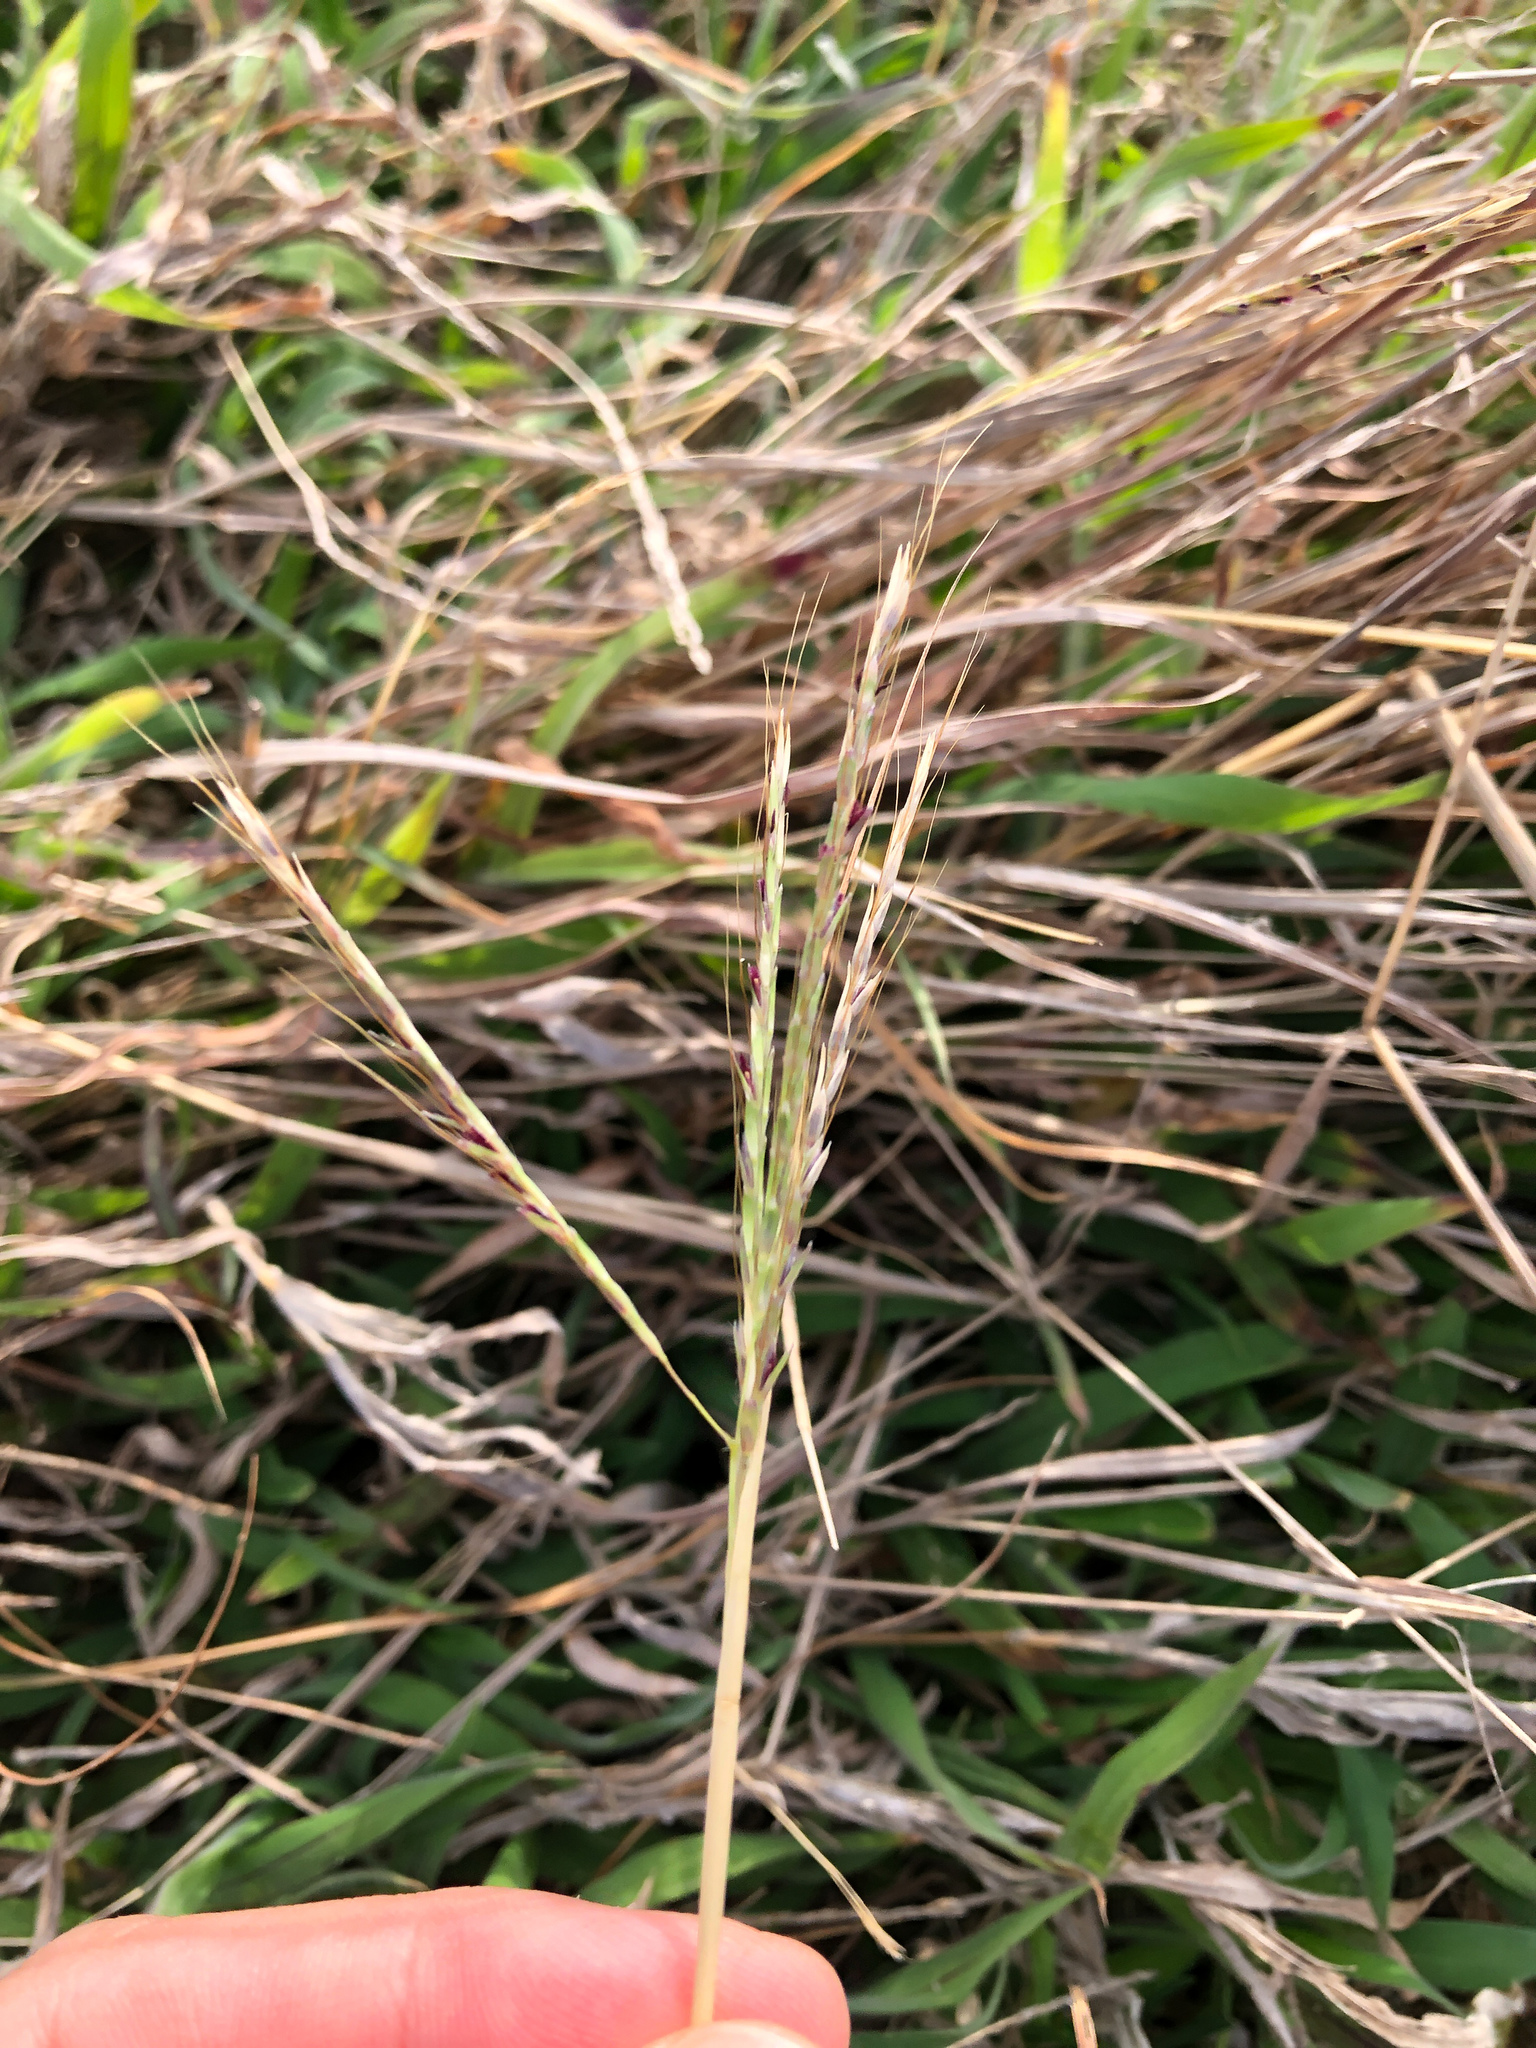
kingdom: Plantae
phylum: Tracheophyta
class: Liliopsida
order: Poales
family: Poaceae
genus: Bothriochloa
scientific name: Bothriochloa ischaemum
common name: Yellow bluestem
